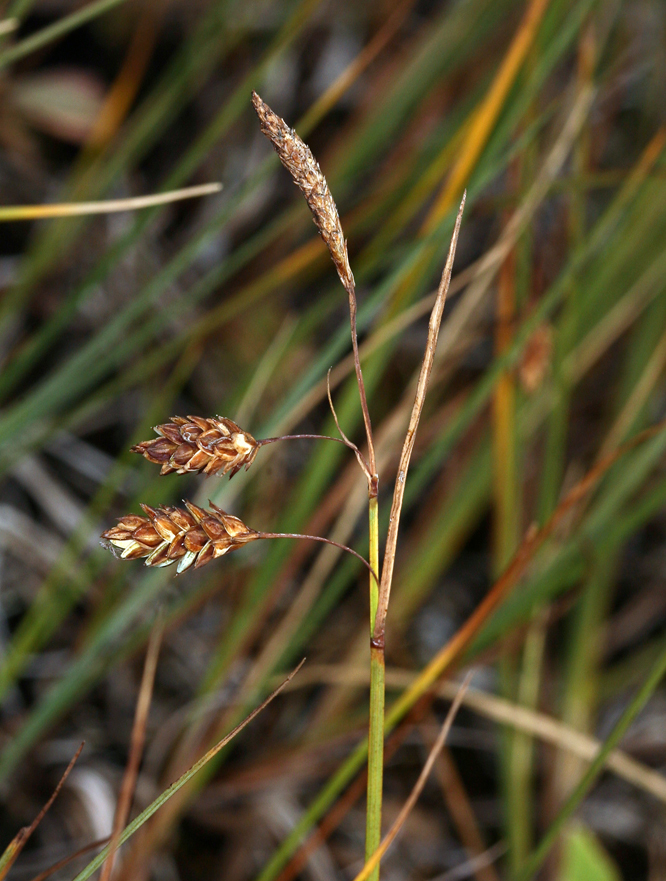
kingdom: Plantae
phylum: Tracheophyta
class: Liliopsida
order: Poales
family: Cyperaceae
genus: Carex
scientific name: Carex limosa
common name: Bog sedge
